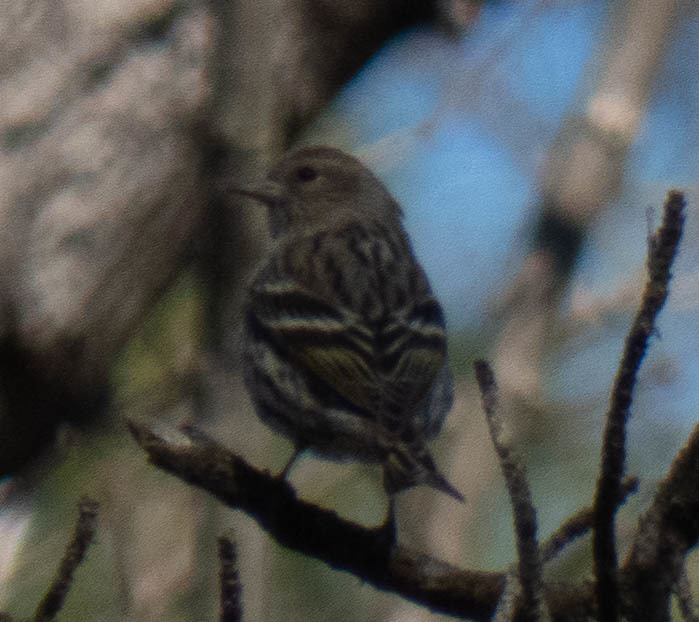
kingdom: Animalia
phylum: Chordata
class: Aves
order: Passeriformes
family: Fringillidae
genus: Spinus
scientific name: Spinus pinus
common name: Pine siskin
